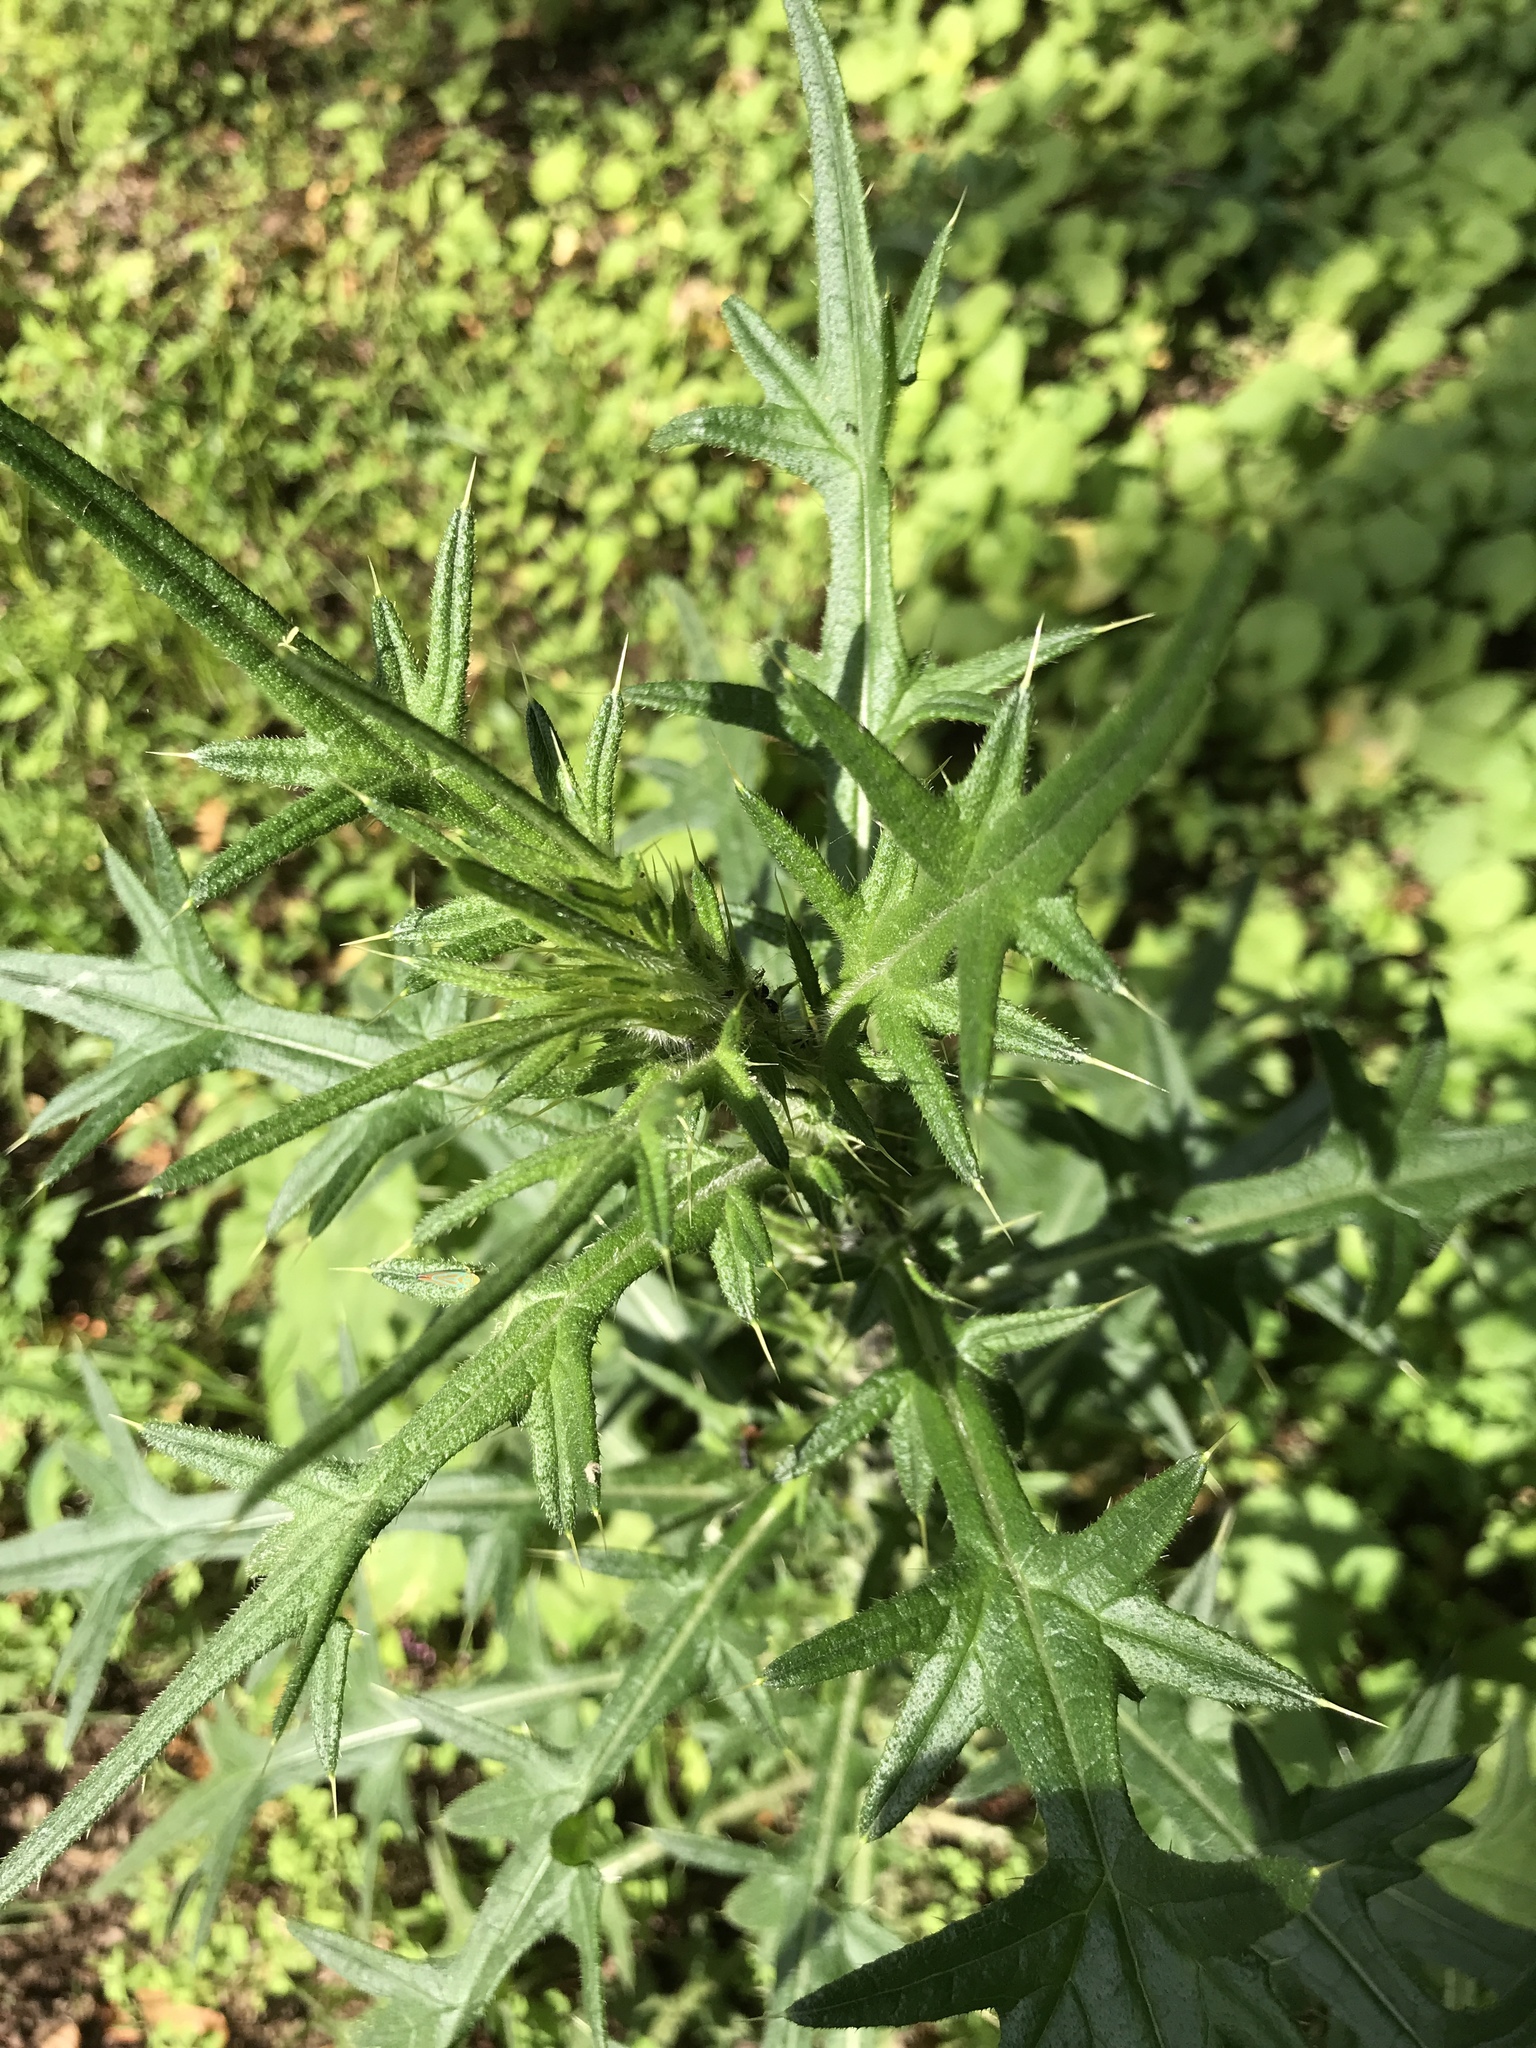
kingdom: Plantae
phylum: Tracheophyta
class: Magnoliopsida
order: Asterales
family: Asteraceae
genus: Cirsium
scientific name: Cirsium vulgare
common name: Bull thistle
